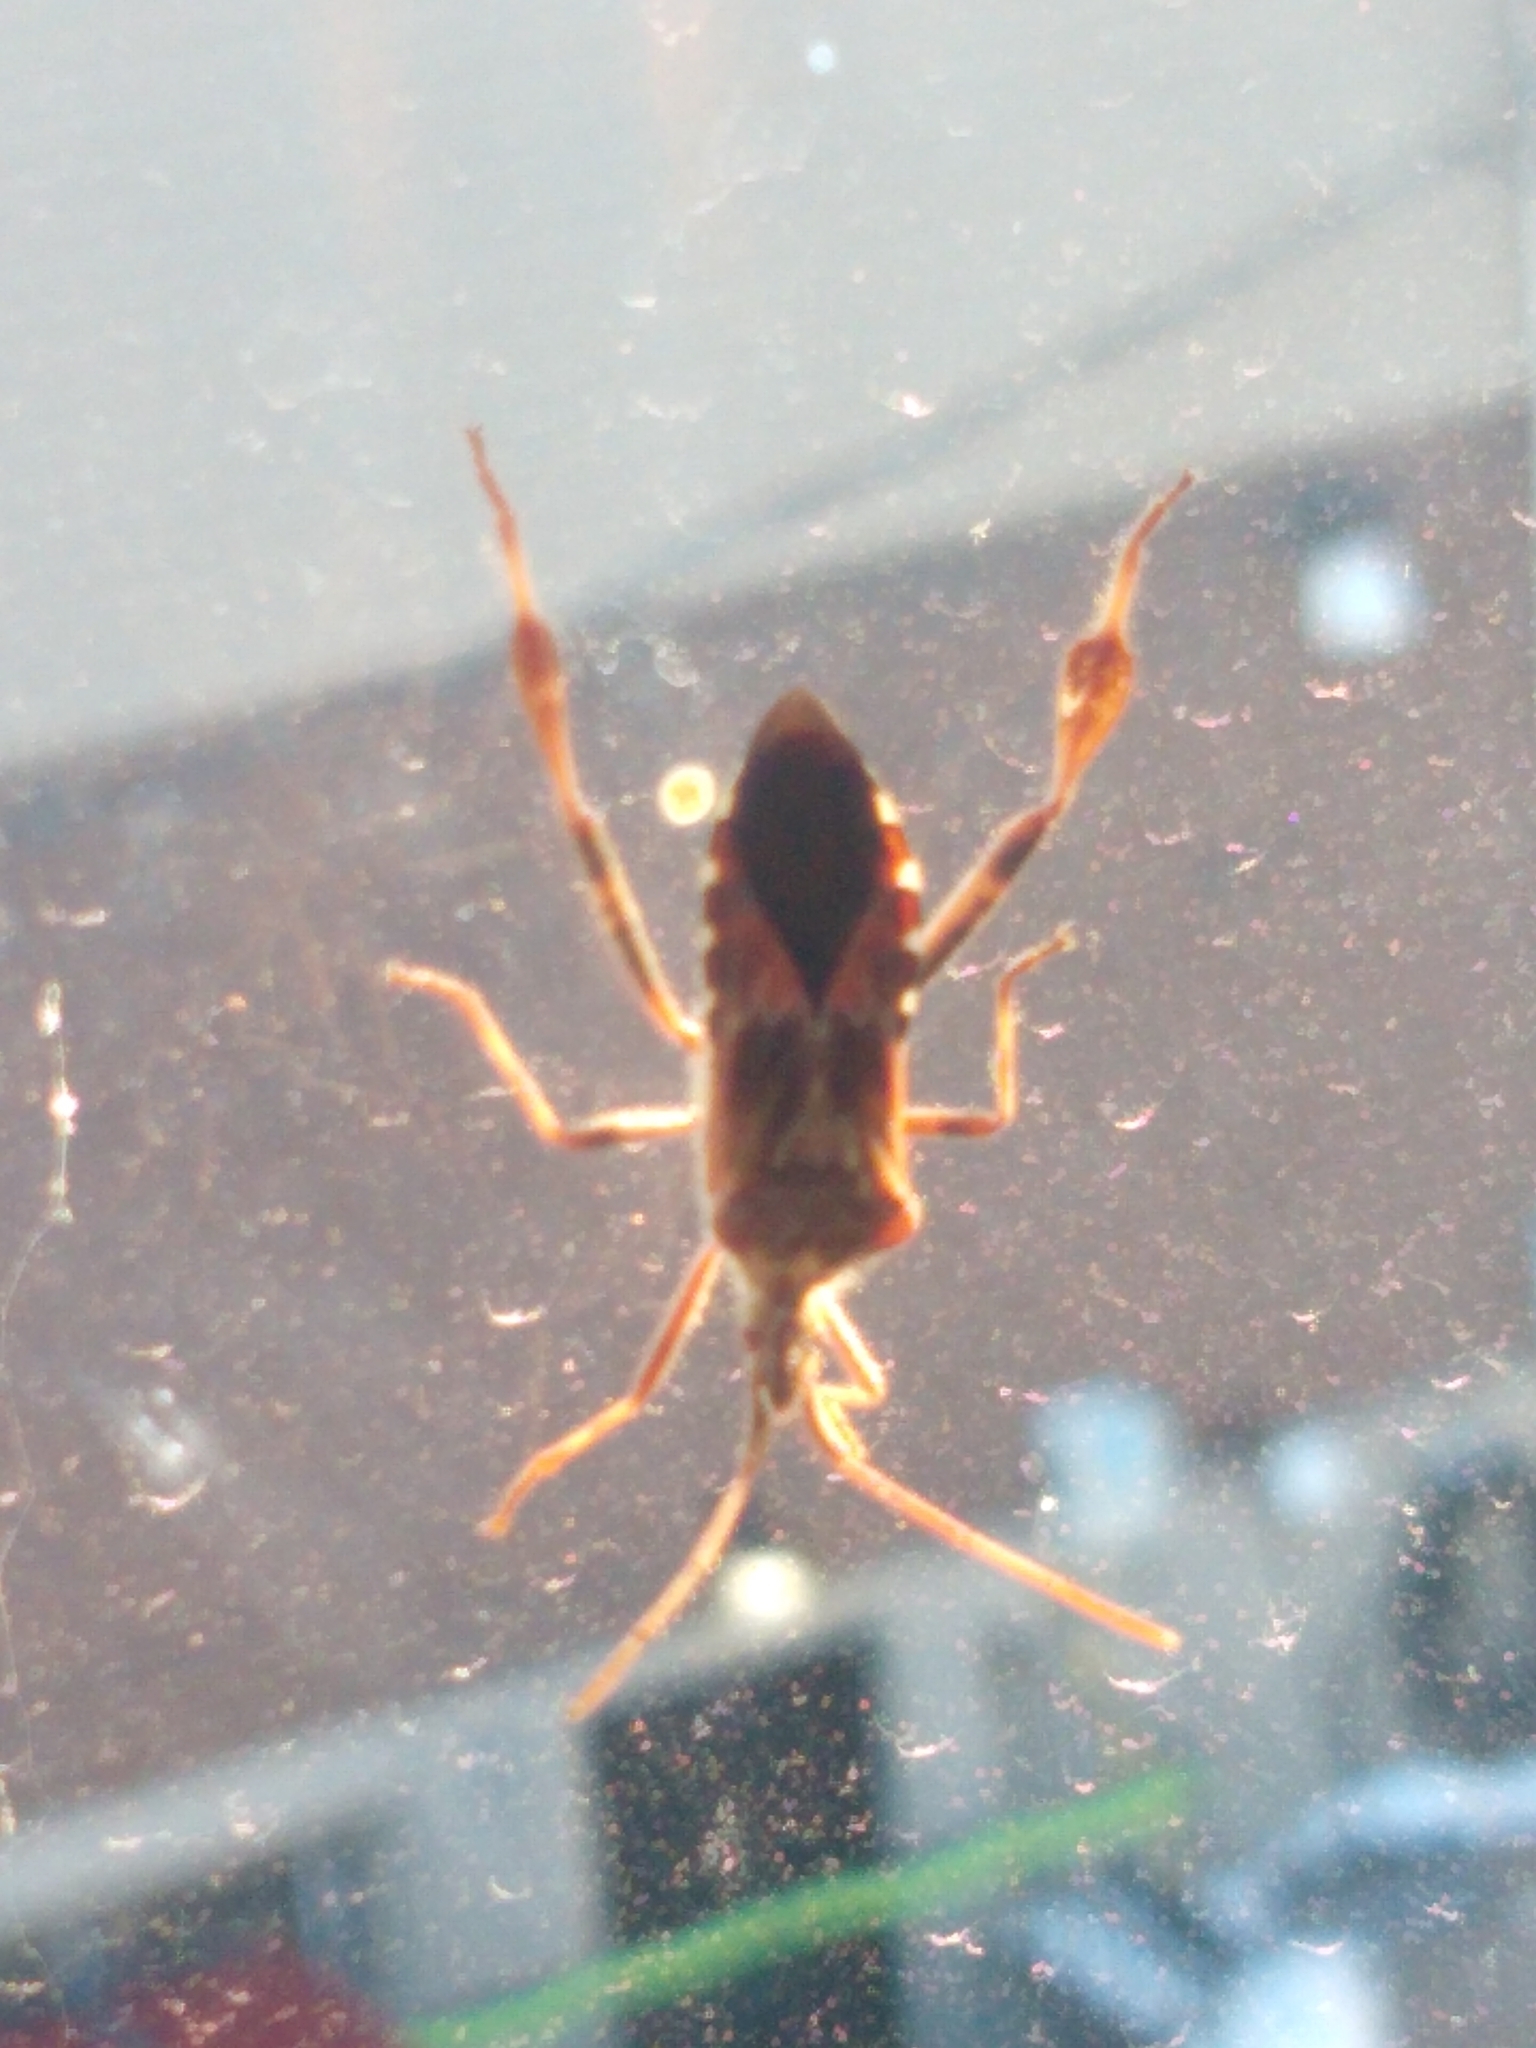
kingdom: Animalia
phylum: Arthropoda
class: Insecta
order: Hemiptera
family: Coreidae
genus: Leptoglossus
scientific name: Leptoglossus occidentalis
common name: Western conifer-seed bug
